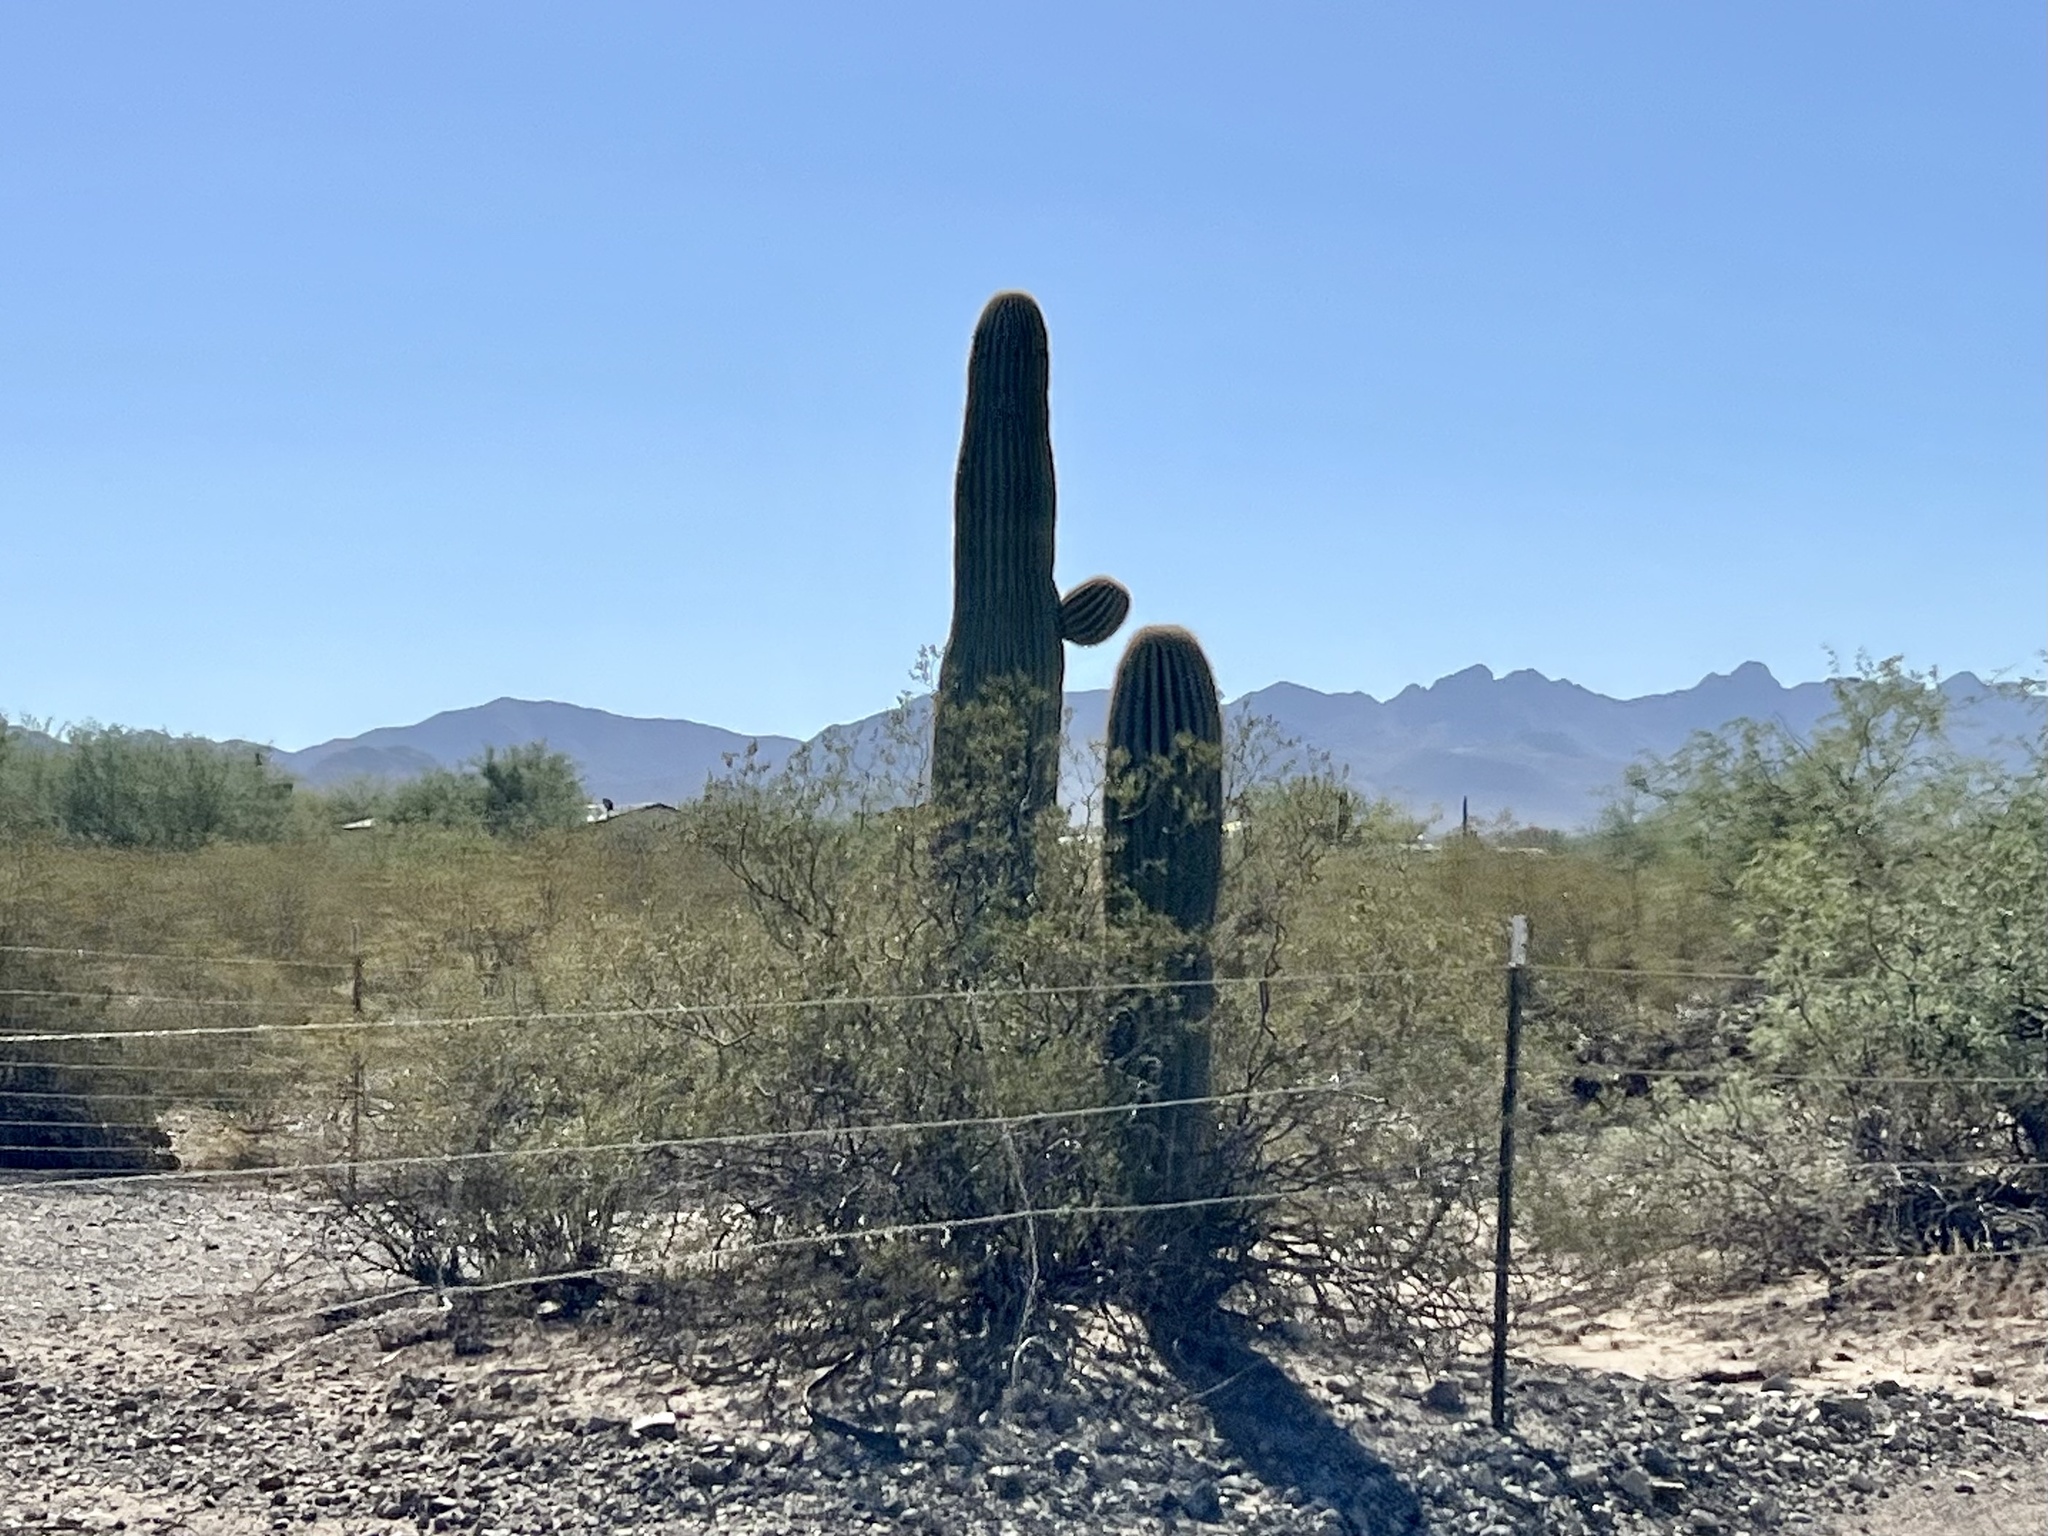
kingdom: Plantae
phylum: Tracheophyta
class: Magnoliopsida
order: Caryophyllales
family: Cactaceae
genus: Carnegiea
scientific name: Carnegiea gigantea
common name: Saguaro
